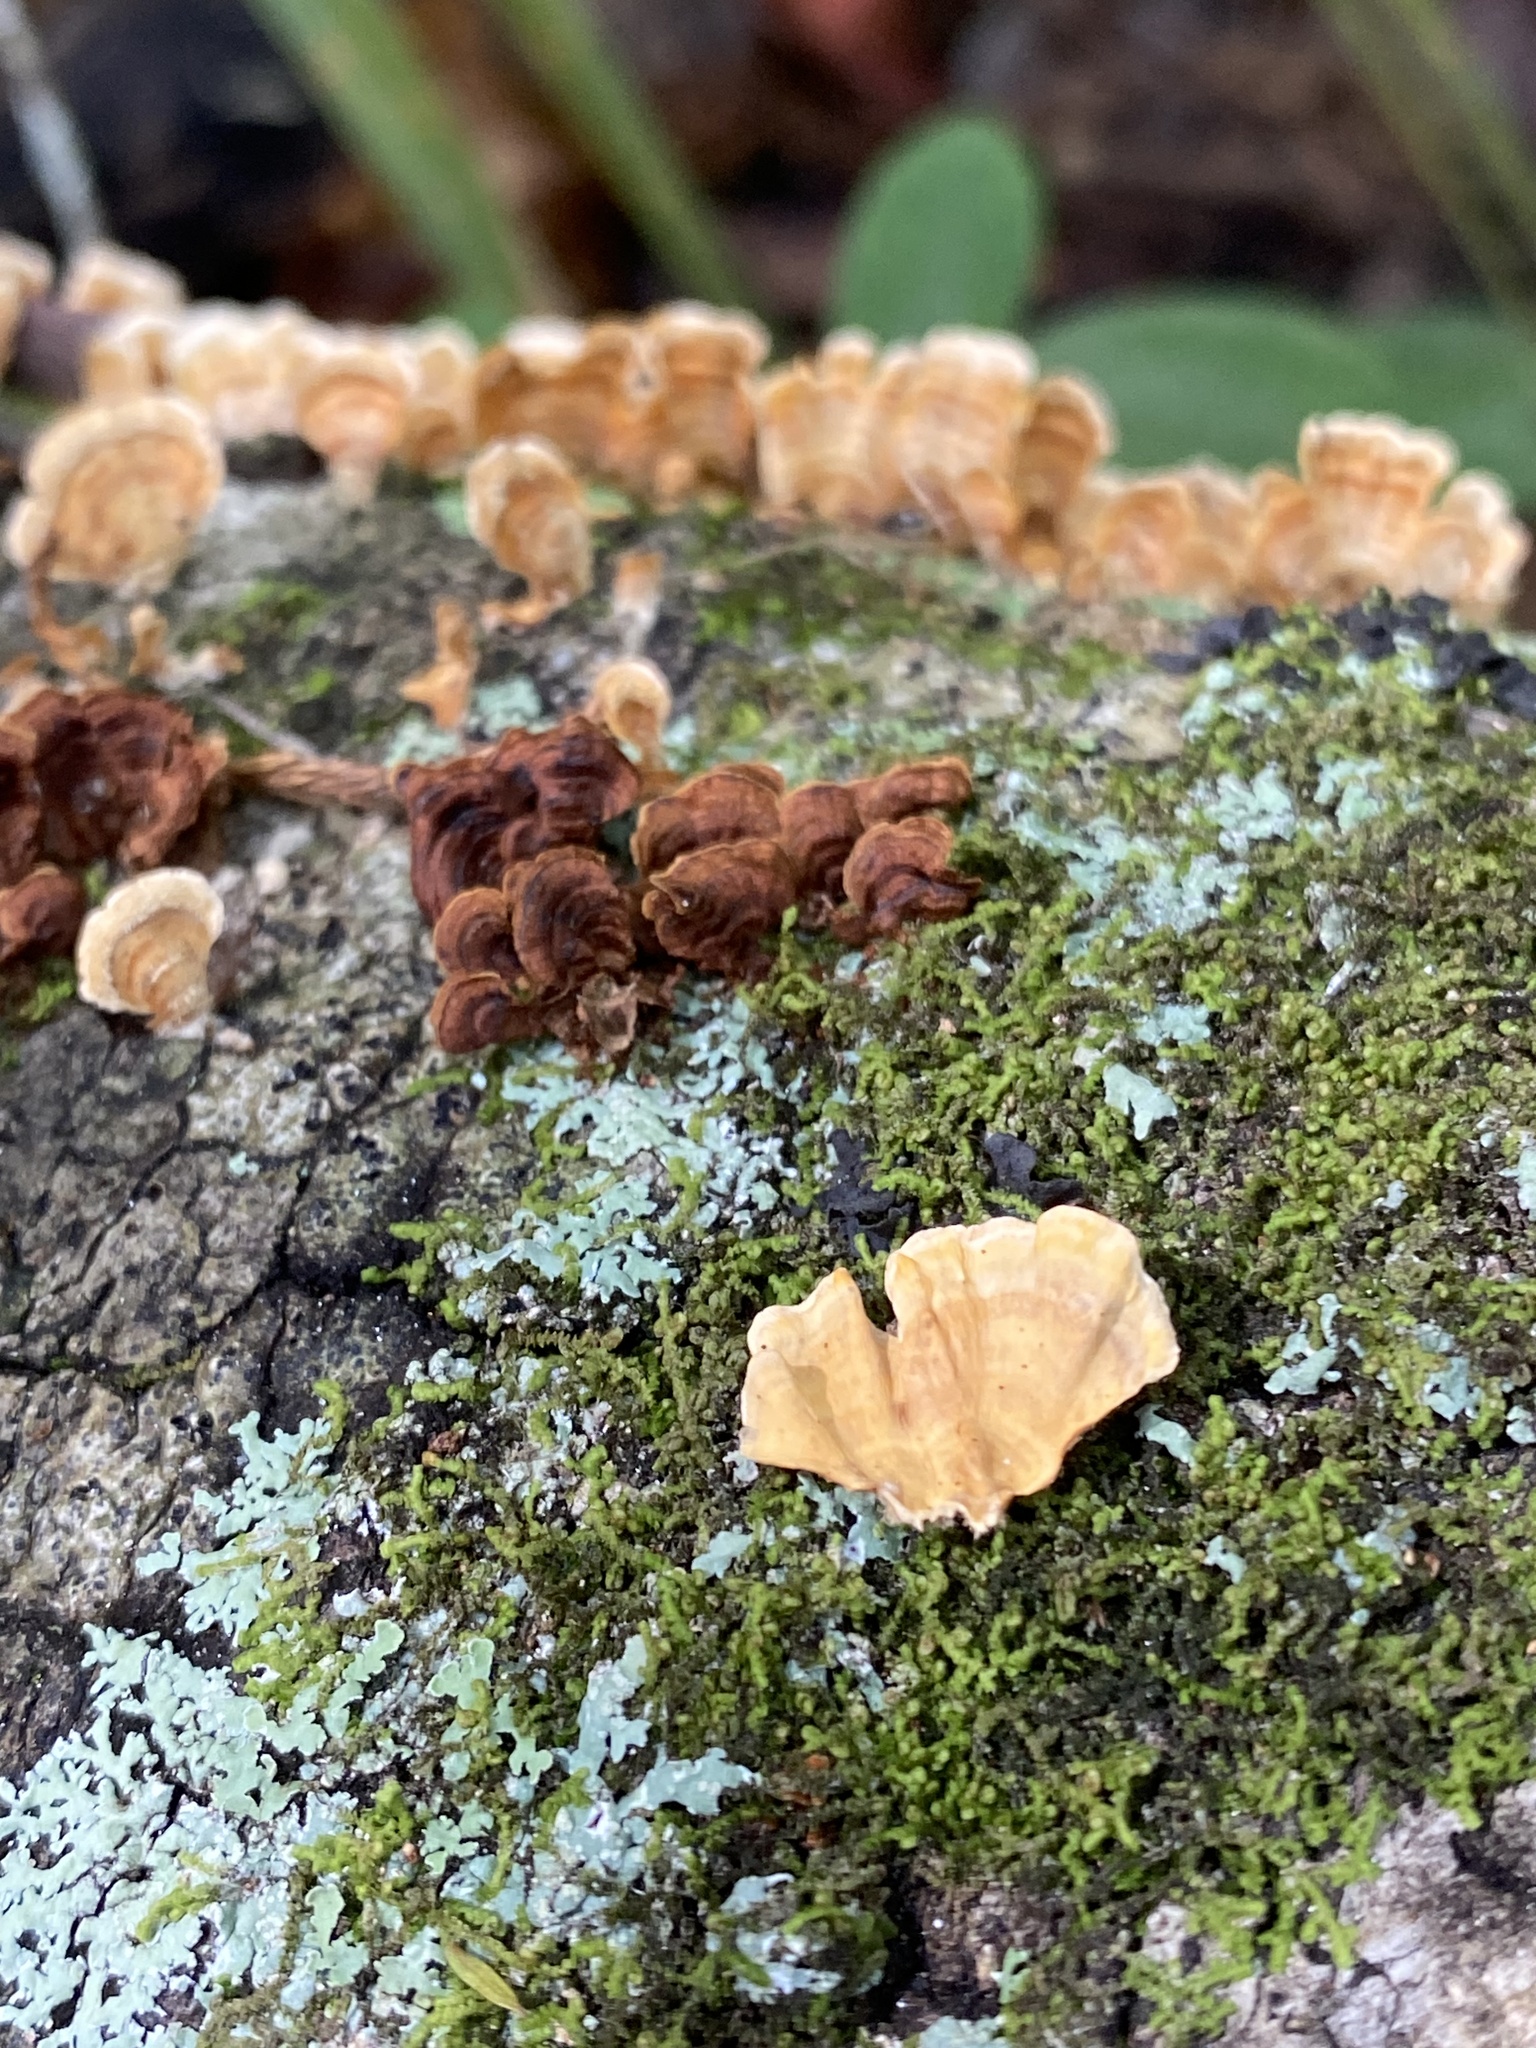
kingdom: Fungi
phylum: Basidiomycota
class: Agaricomycetes
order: Russulales
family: Stereaceae
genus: Stereum
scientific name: Stereum complicatum
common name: Crowded parchment
